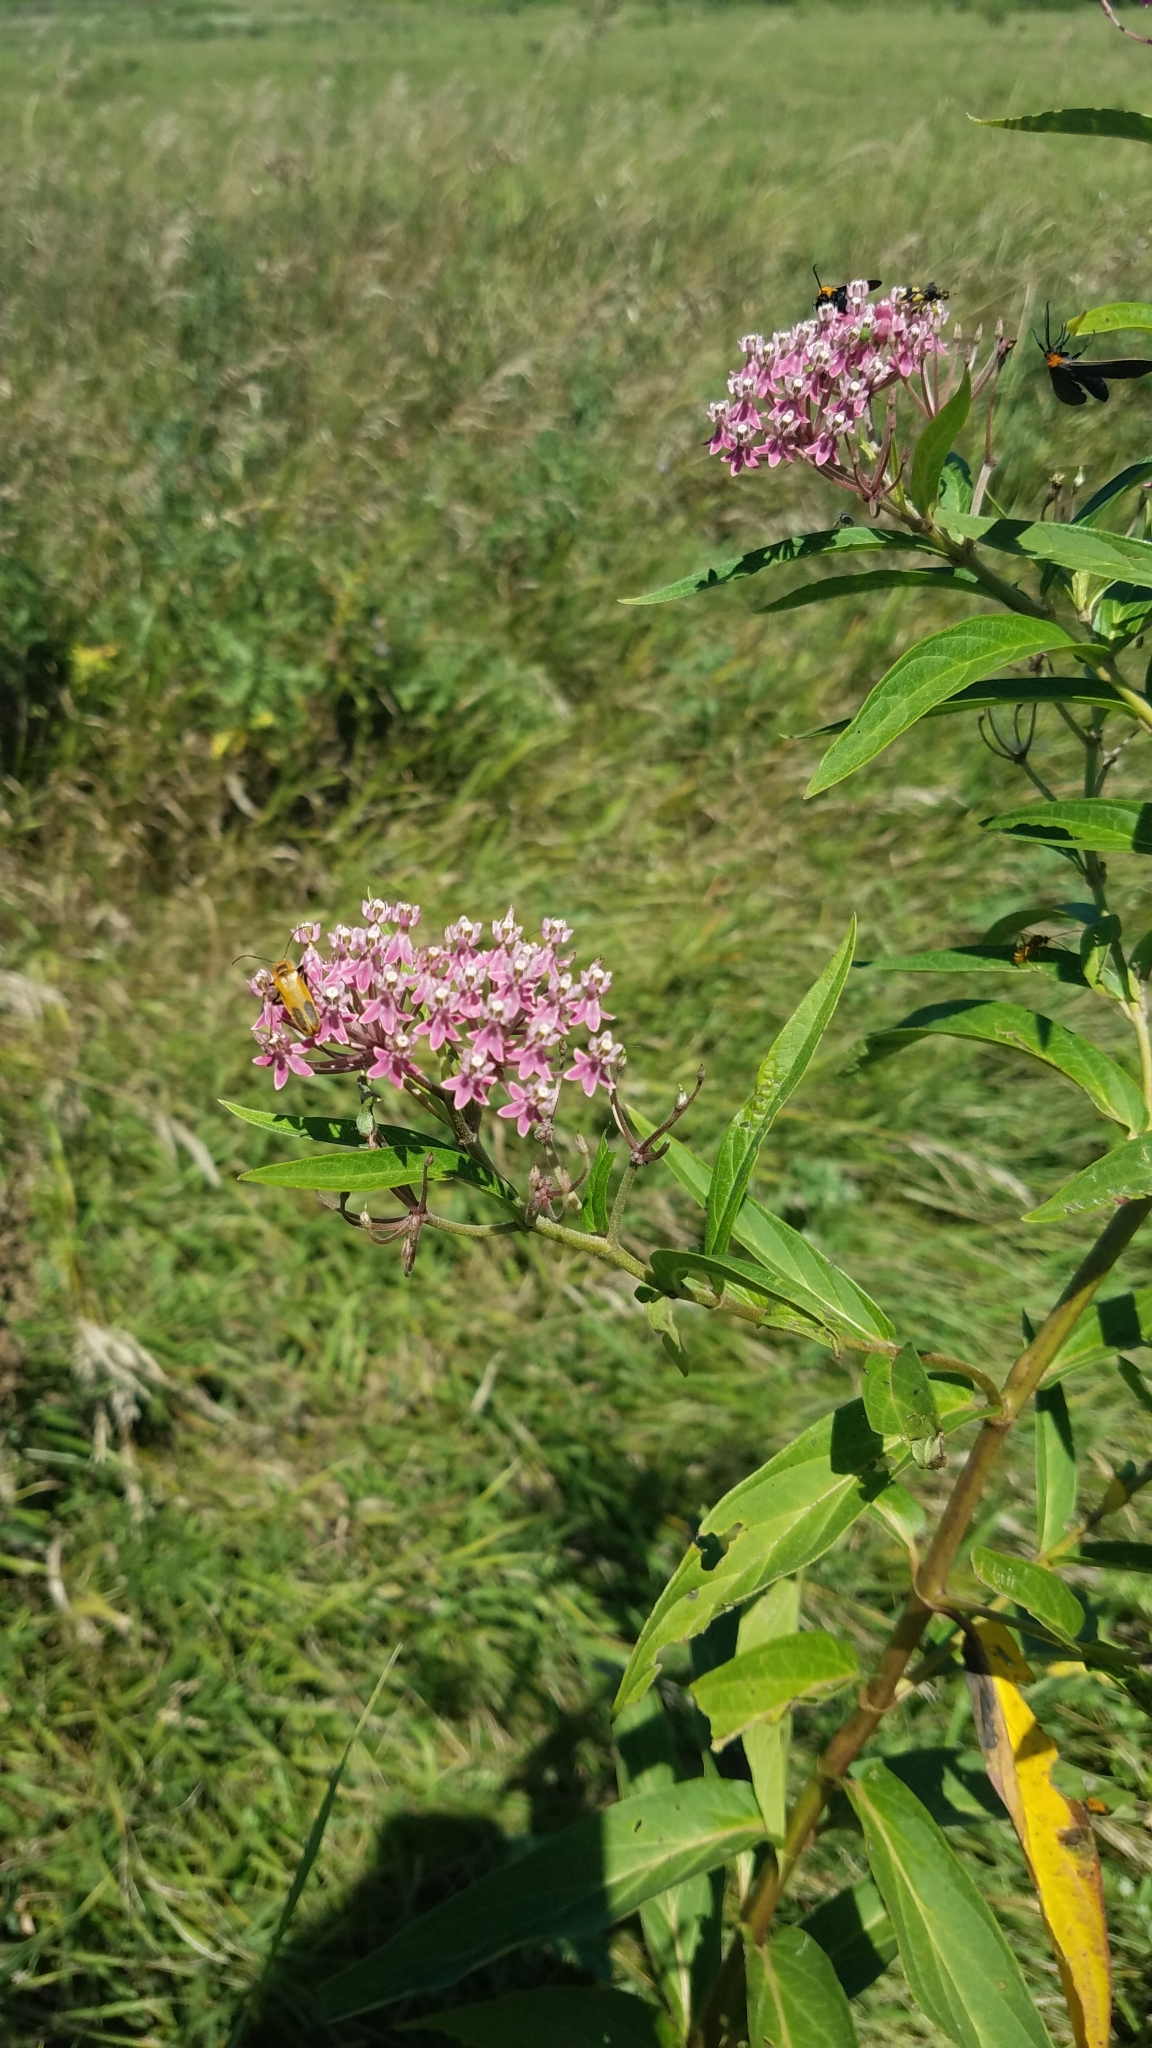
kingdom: Plantae
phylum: Tracheophyta
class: Magnoliopsida
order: Gentianales
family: Apocynaceae
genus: Asclepias
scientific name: Asclepias incarnata
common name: Swamp milkweed
